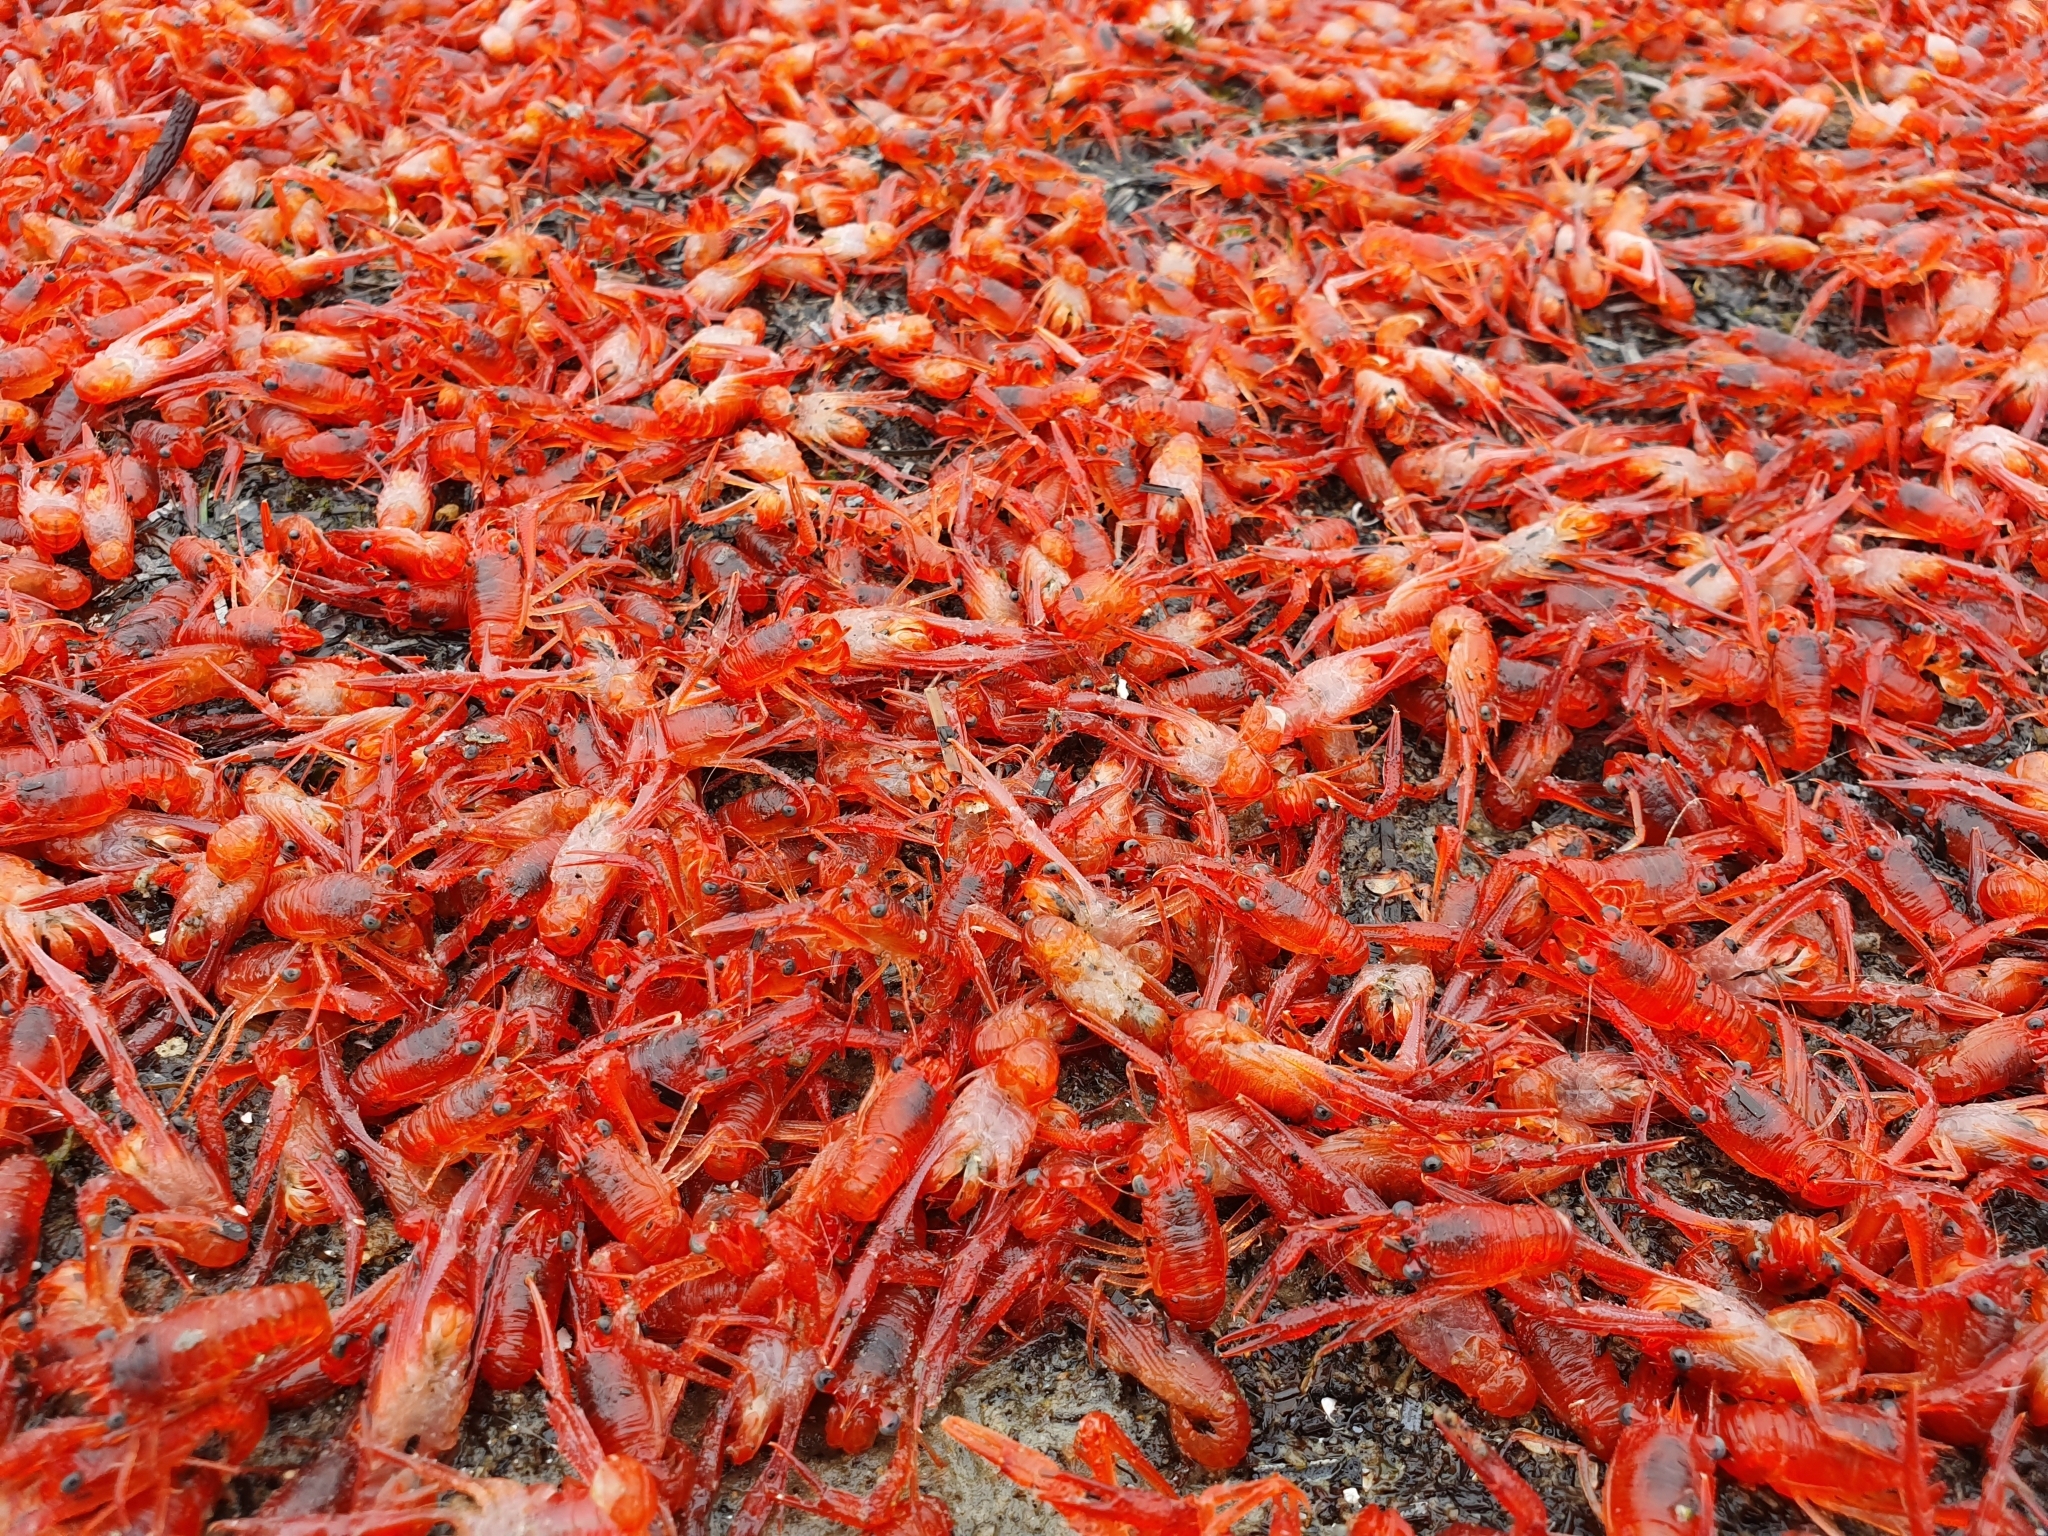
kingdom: Animalia
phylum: Arthropoda
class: Malacostraca
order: Decapoda
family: Munididae
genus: Grimothea
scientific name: Grimothea gregaria
